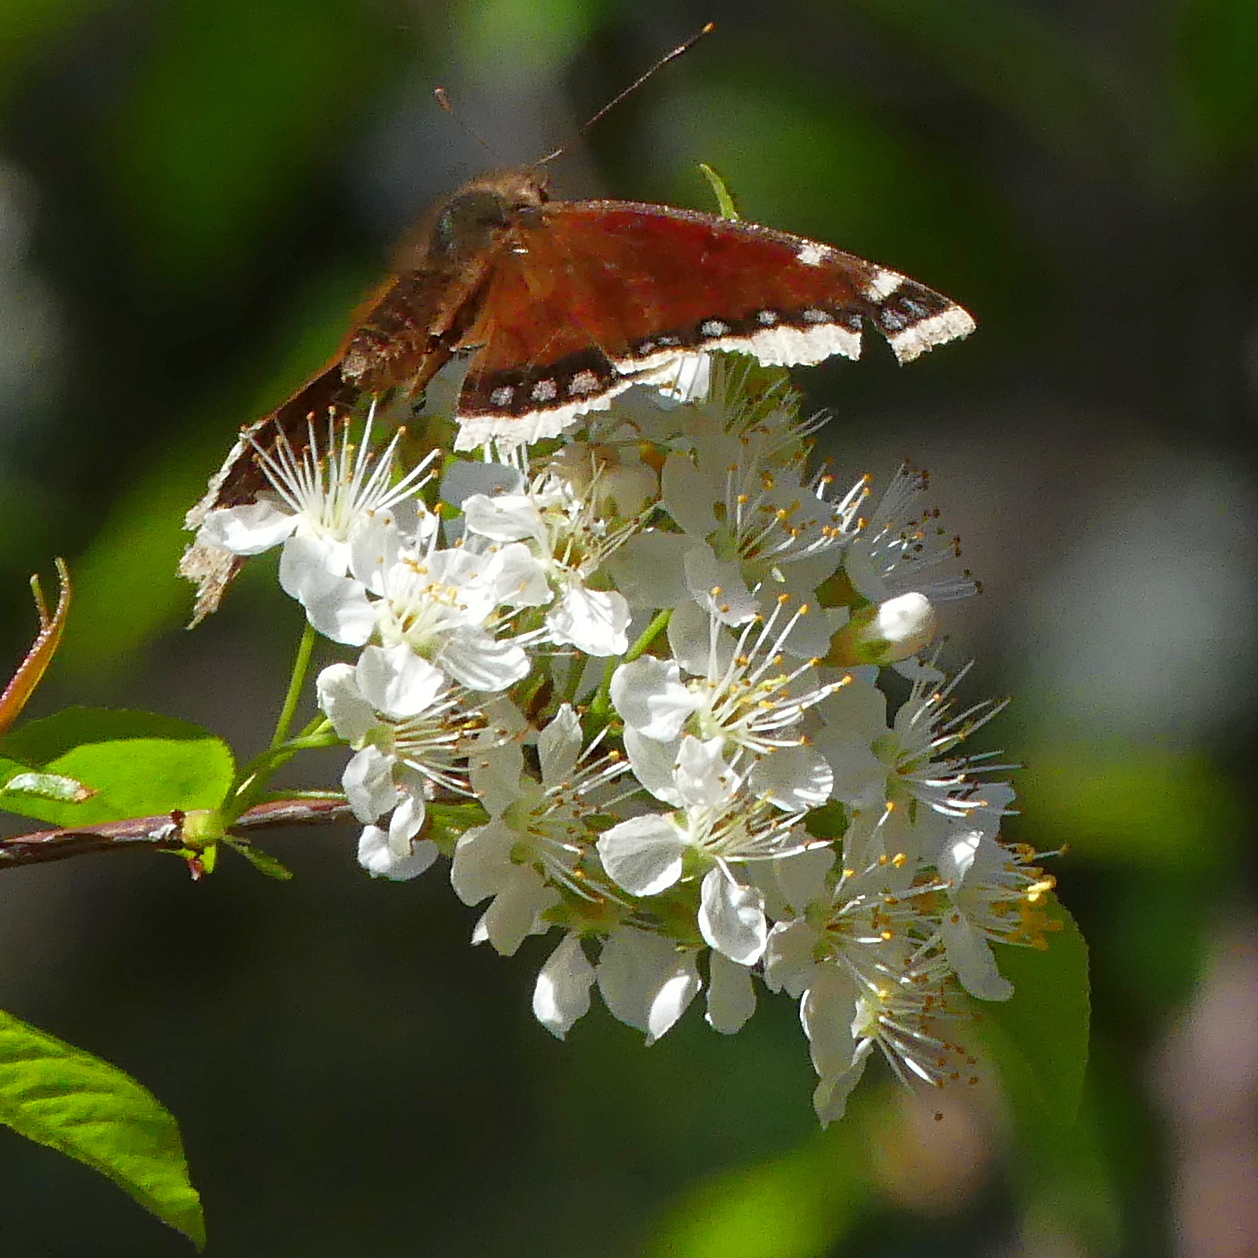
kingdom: Animalia
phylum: Arthropoda
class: Insecta
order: Lepidoptera
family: Nymphalidae
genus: Nymphalis
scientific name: Nymphalis antiopa
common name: Camberwell beauty
